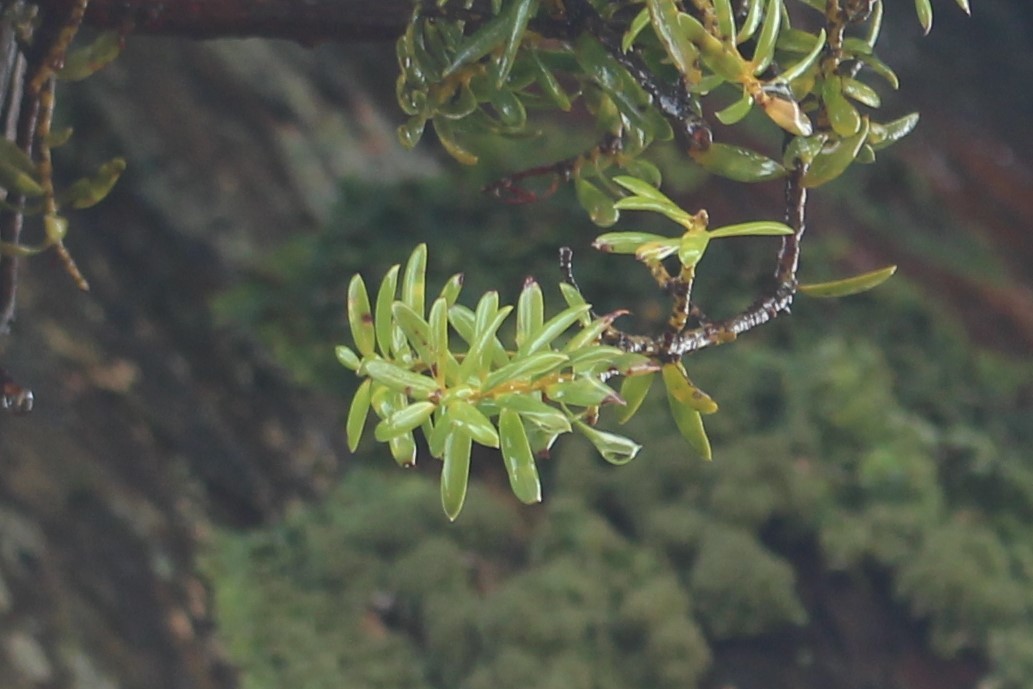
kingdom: Plantae
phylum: Tracheophyta
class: Pinopsida
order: Pinales
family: Podocarpaceae
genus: Podocarpus
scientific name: Podocarpus laetus
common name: Hall's totara
